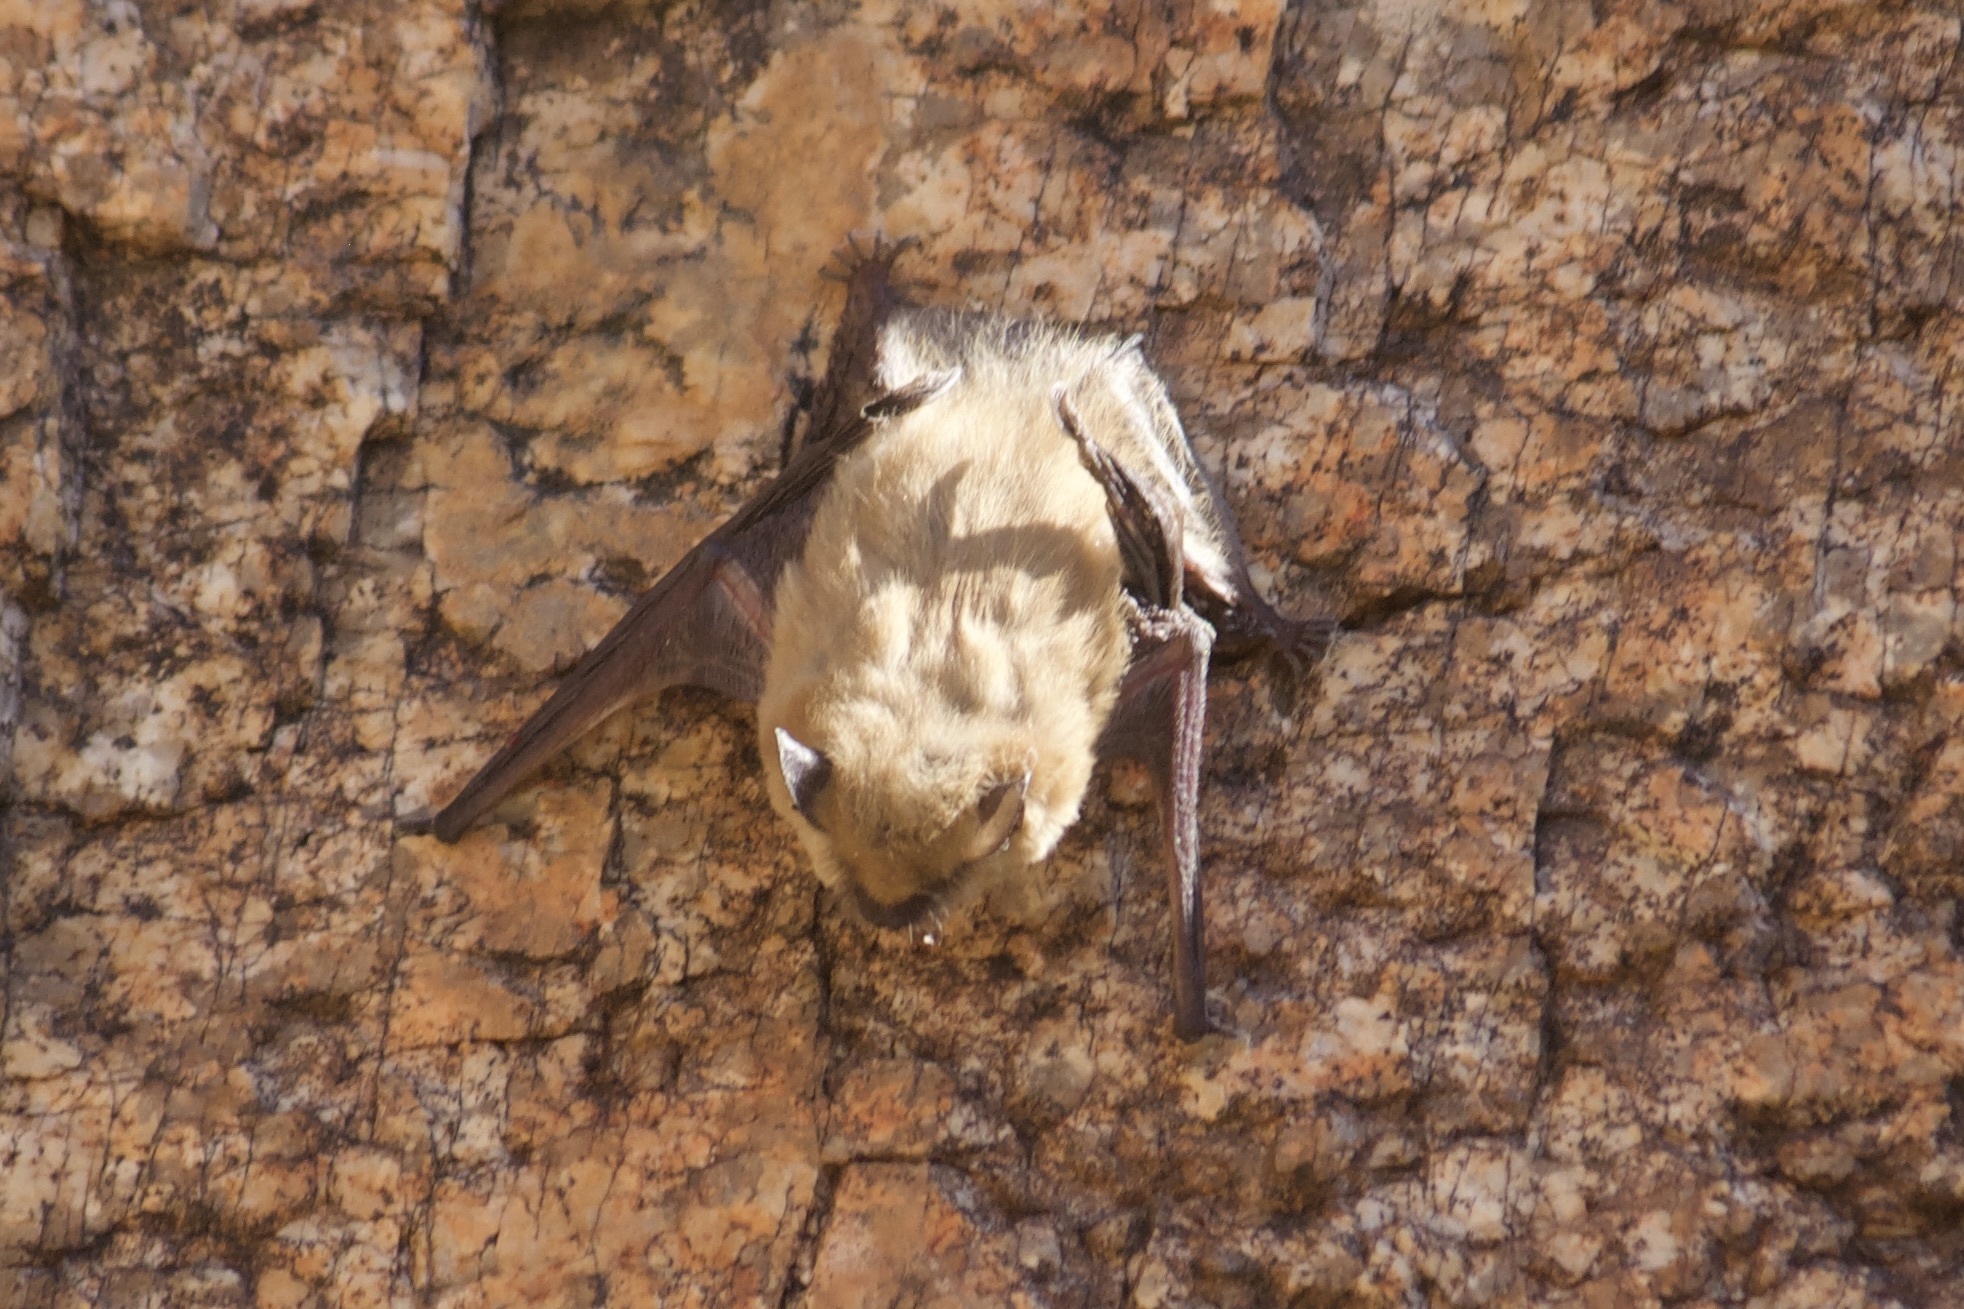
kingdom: Animalia
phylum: Chordata
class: Mammalia
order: Chiroptera
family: Vespertilionidae
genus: Myotis
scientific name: Myotis
